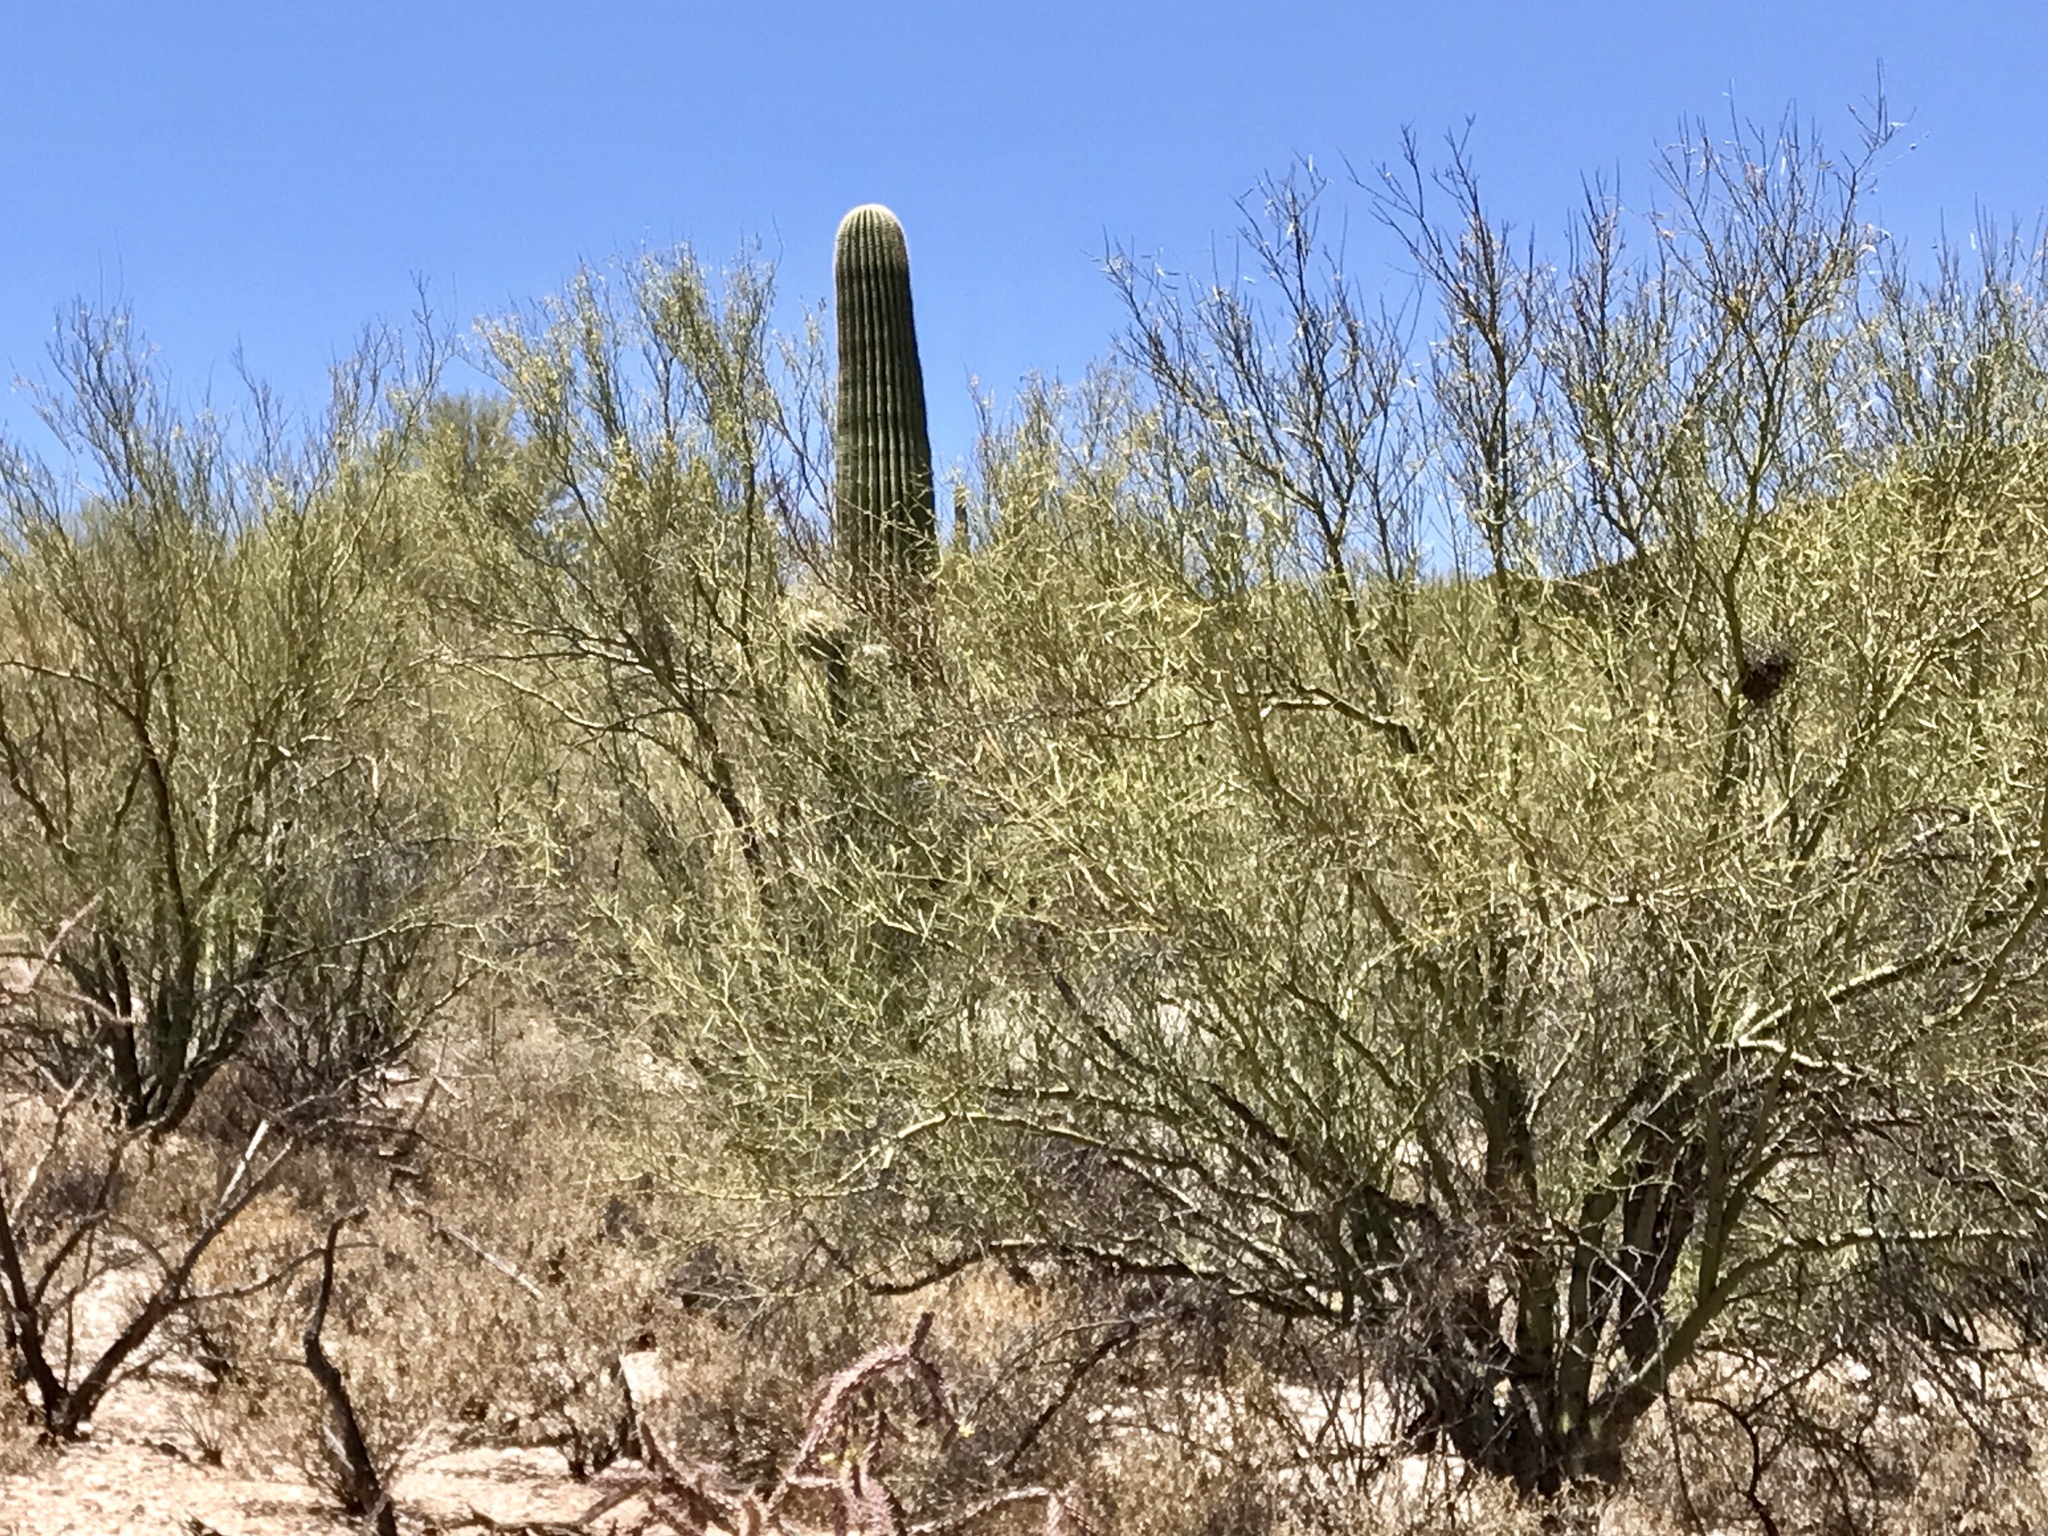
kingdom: Plantae
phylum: Tracheophyta
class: Magnoliopsida
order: Fabales
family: Fabaceae
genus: Parkinsonia
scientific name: Parkinsonia microphylla
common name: Yellow paloverde
